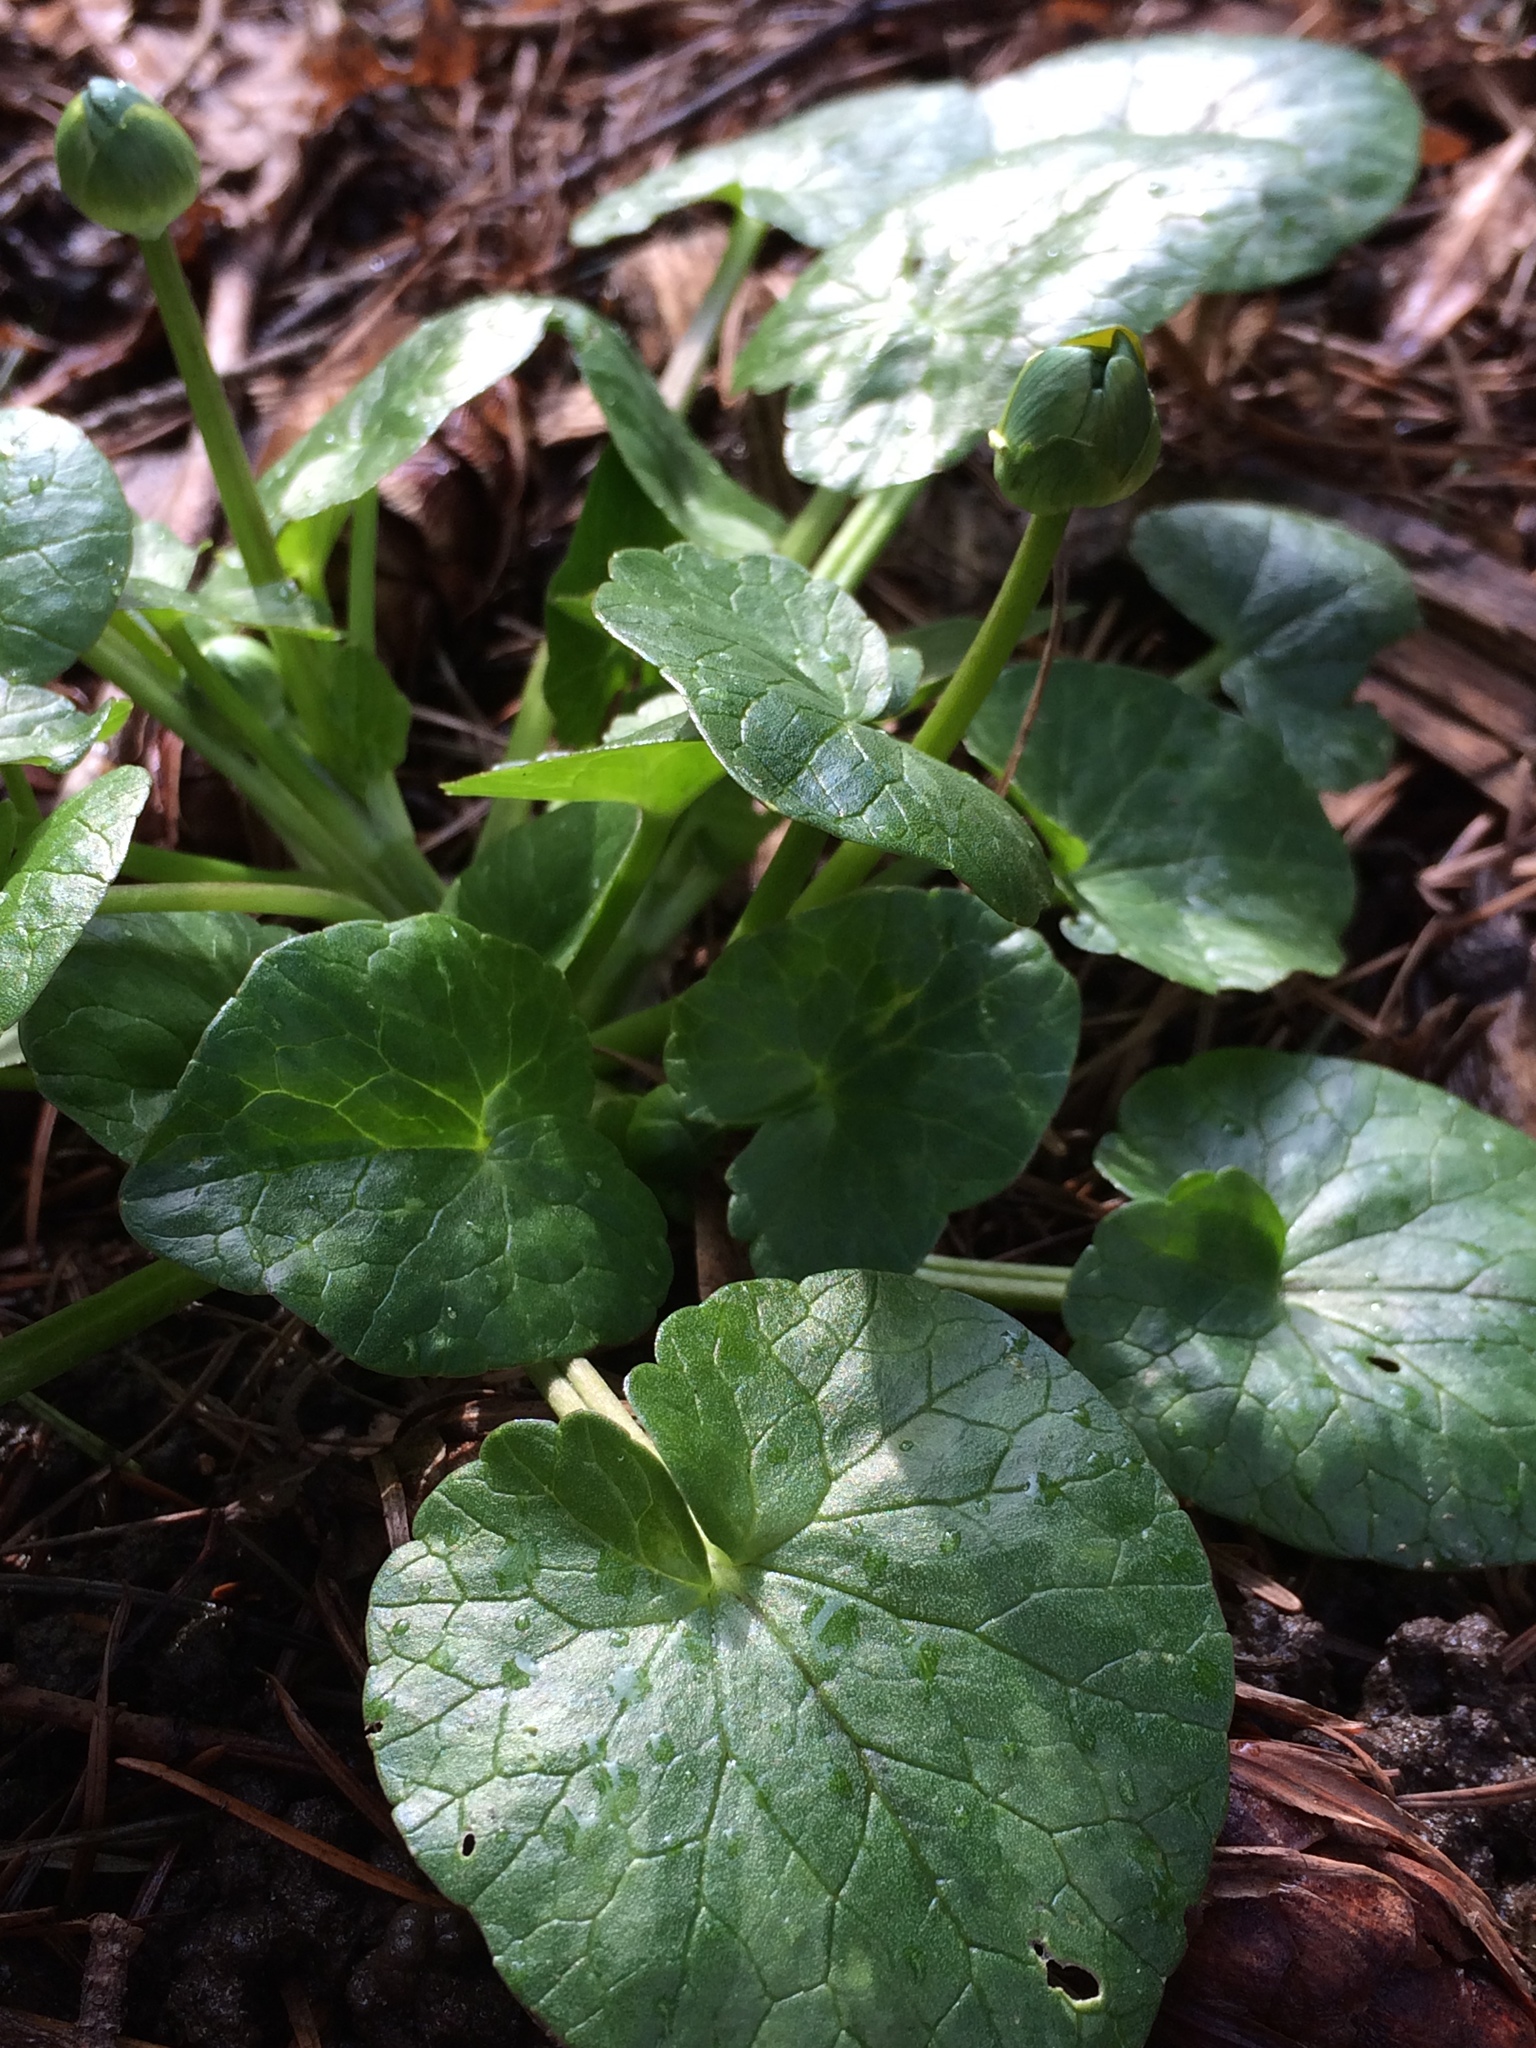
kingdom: Plantae
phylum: Tracheophyta
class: Magnoliopsida
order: Ranunculales
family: Ranunculaceae
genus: Ficaria
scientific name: Ficaria verna
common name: Lesser celandine
